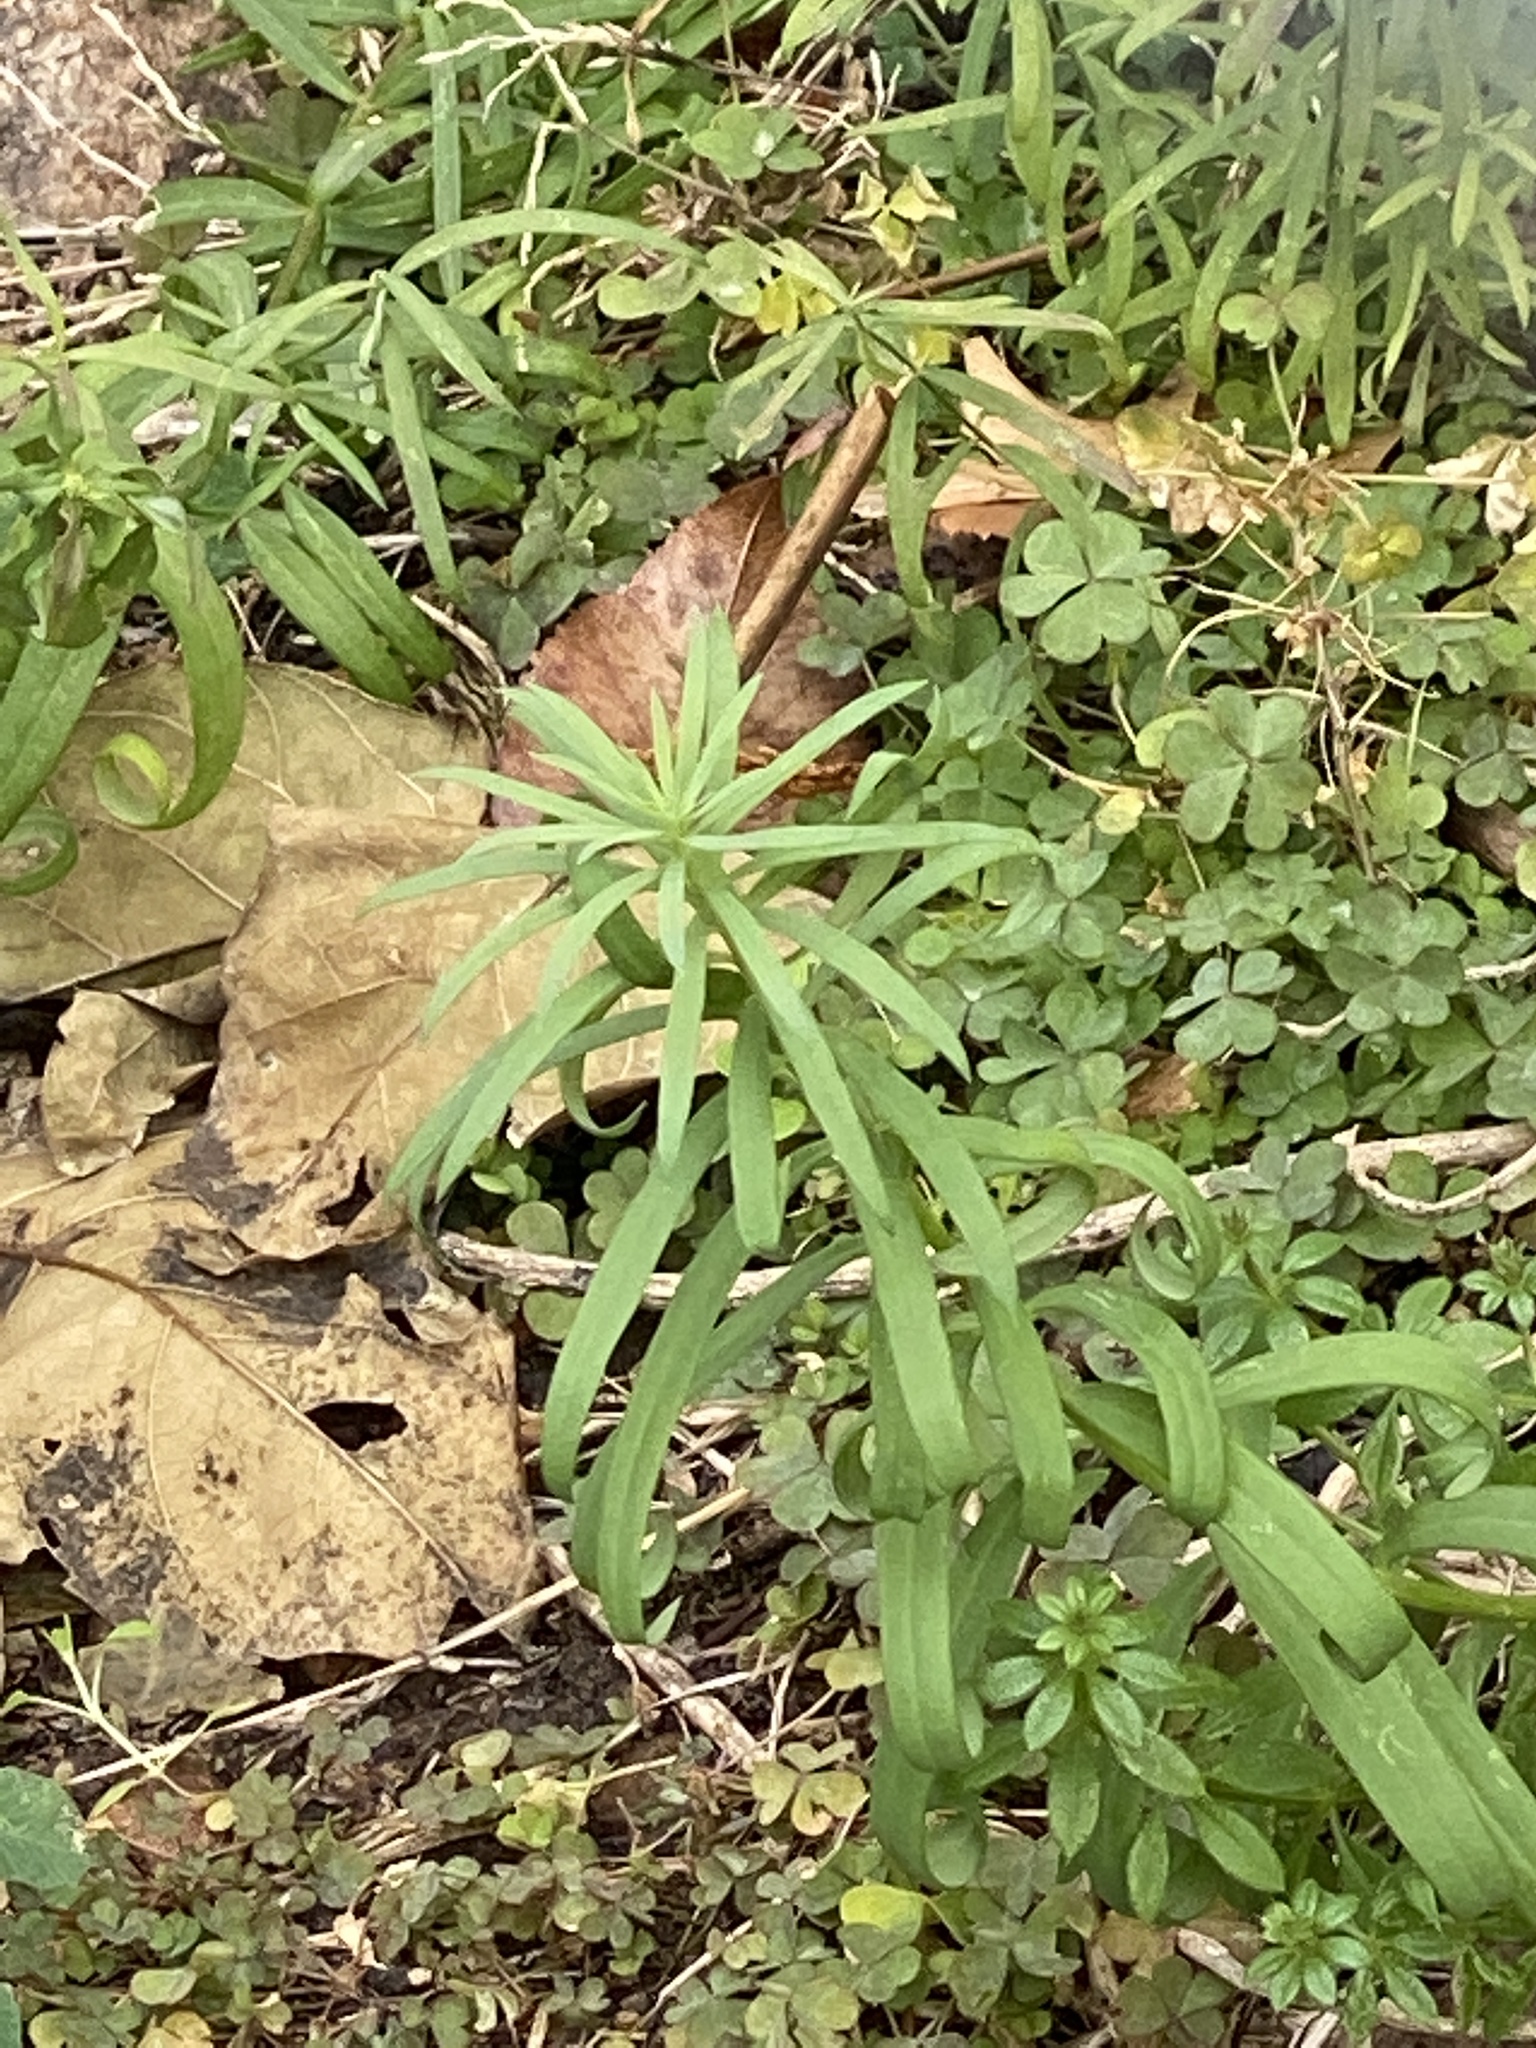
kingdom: Plantae
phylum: Tracheophyta
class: Magnoliopsida
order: Lamiales
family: Plantaginaceae
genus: Linaria
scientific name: Linaria vulgaris
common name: Butter and eggs
